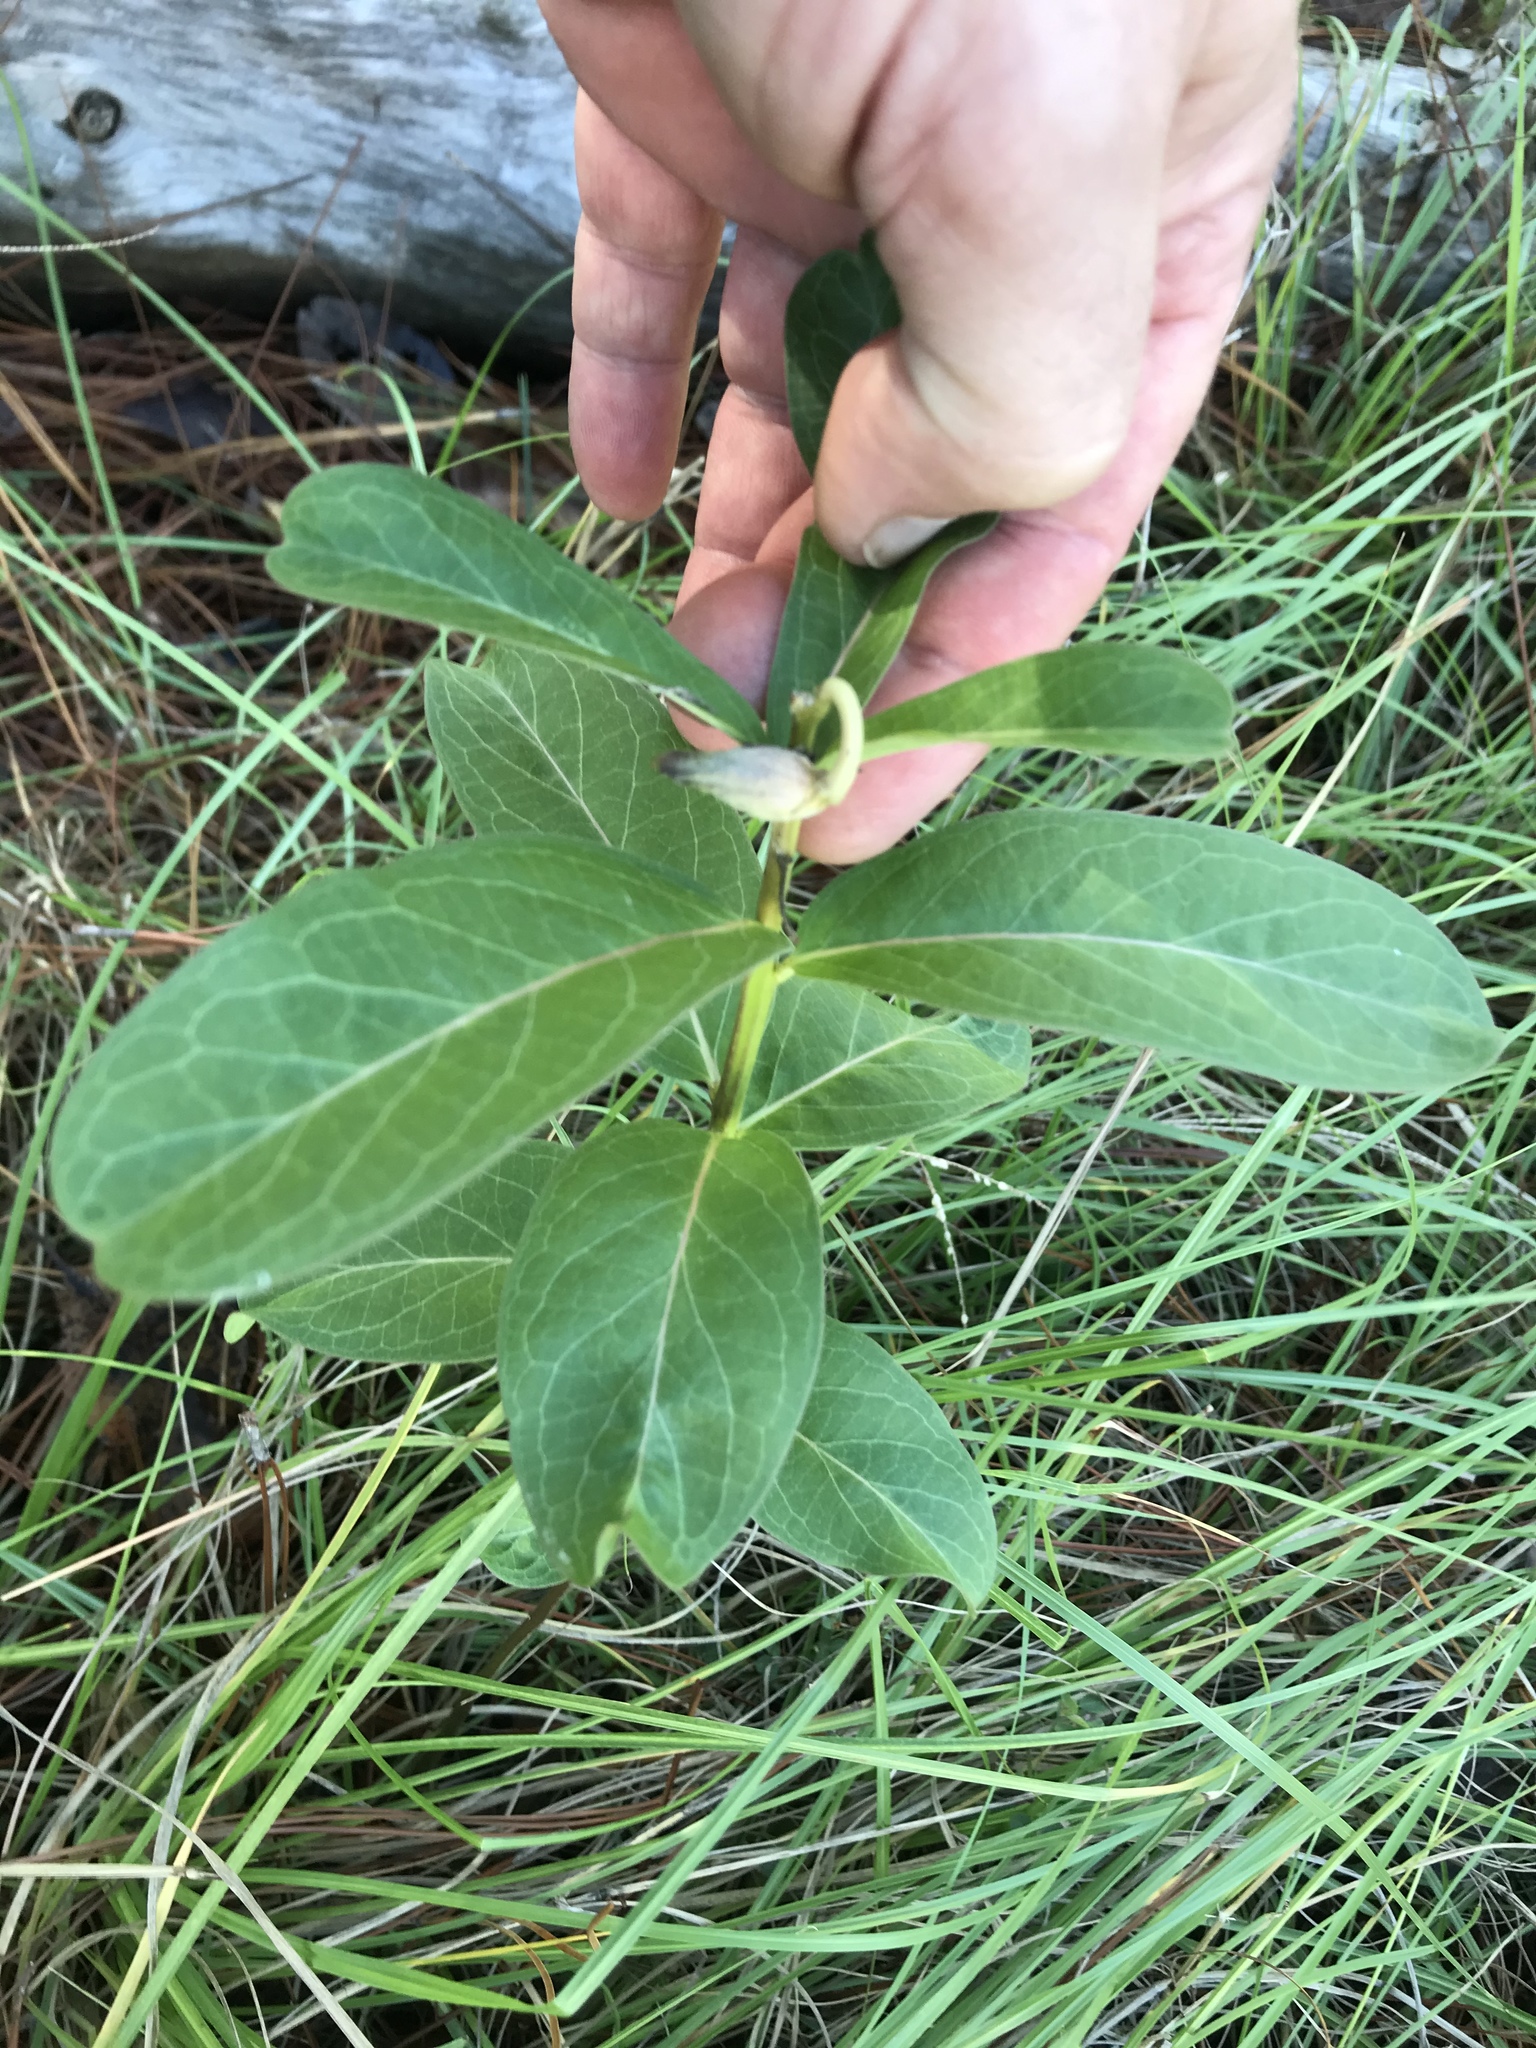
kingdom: Plantae
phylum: Tracheophyta
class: Magnoliopsida
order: Gentianales
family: Apocynaceae
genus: Asclepias
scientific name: Asclepias viridis
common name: Antelope-horns
